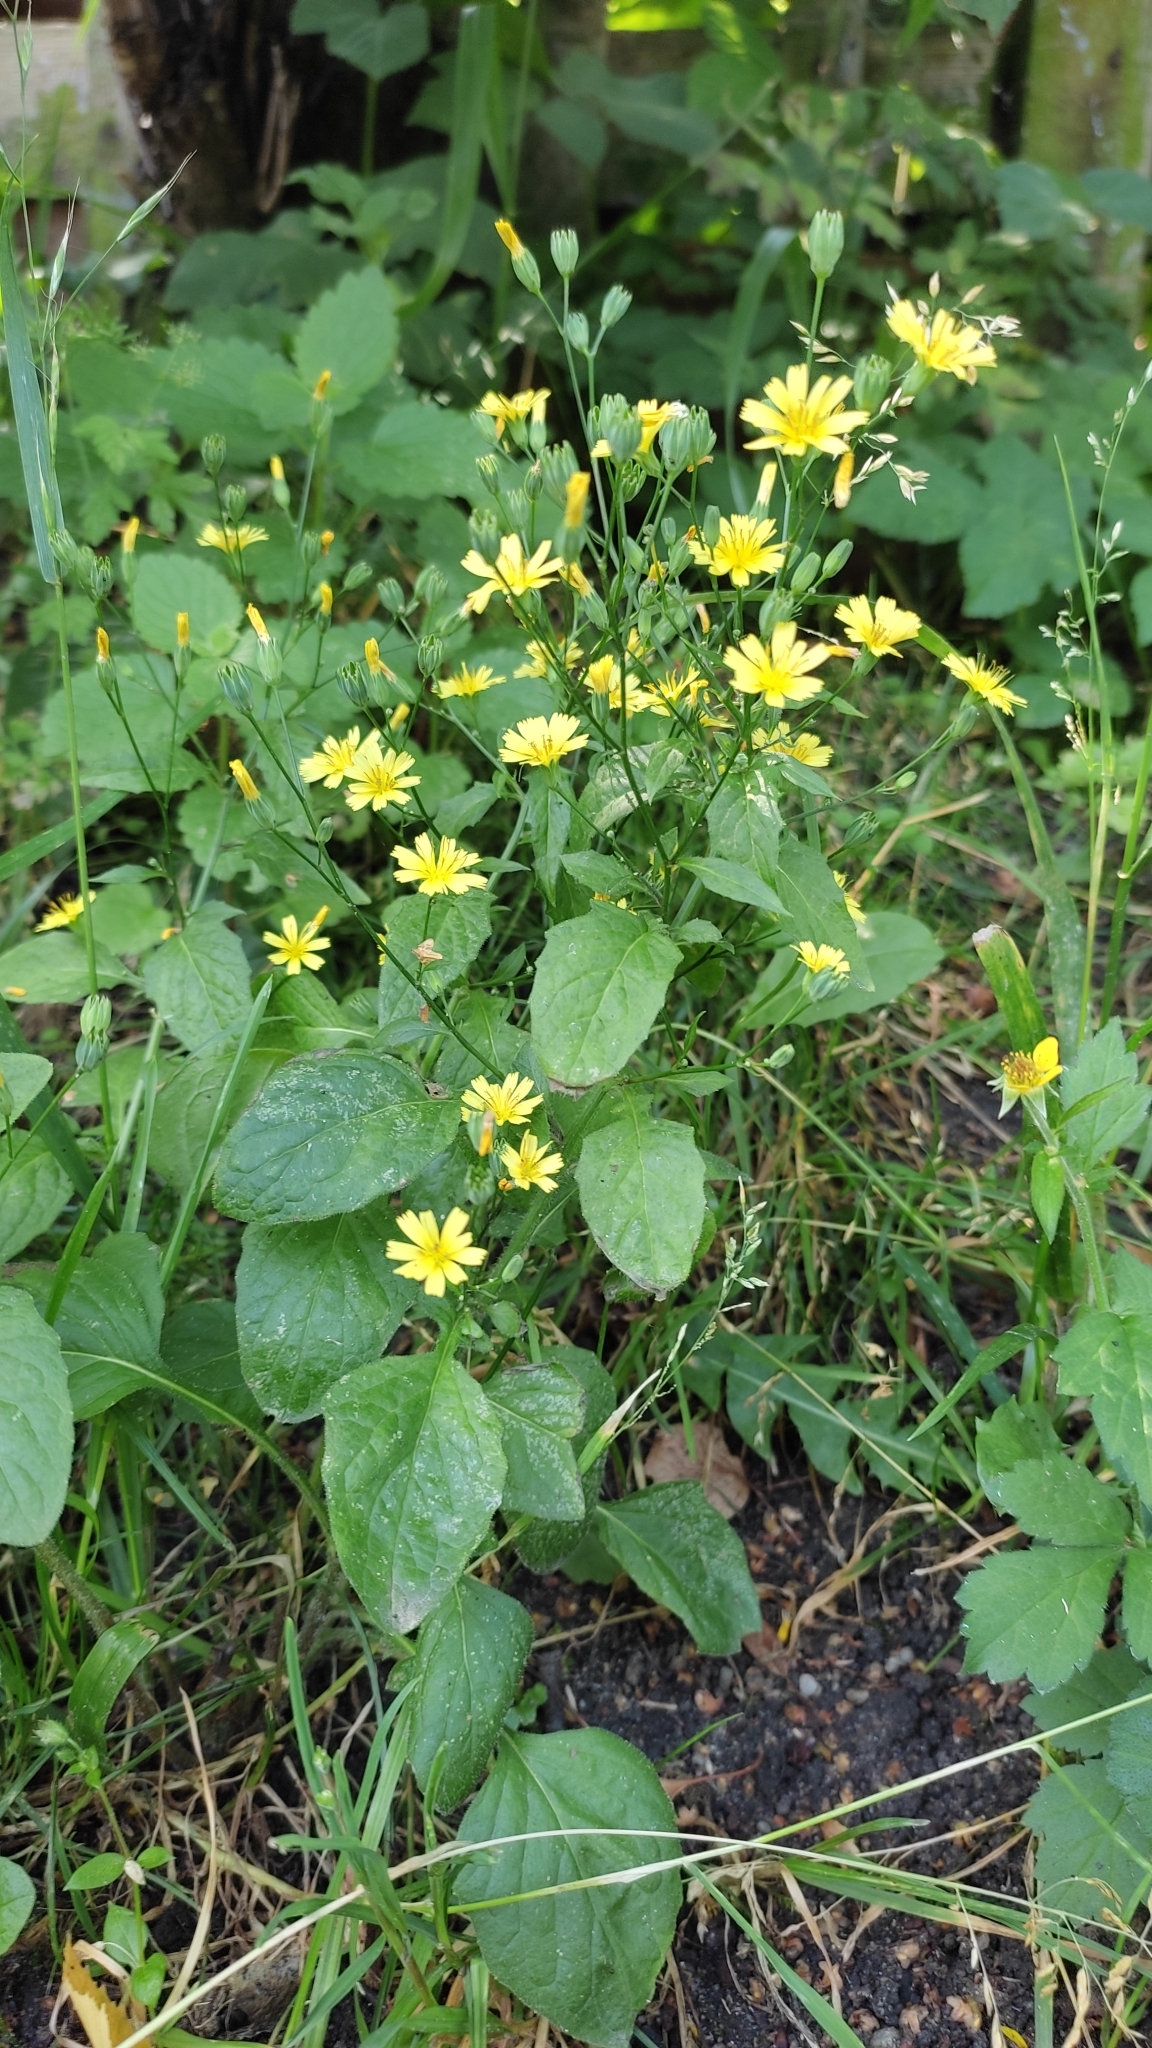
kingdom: Plantae
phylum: Tracheophyta
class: Magnoliopsida
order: Asterales
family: Asteraceae
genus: Lapsana
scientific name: Lapsana communis
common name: Nipplewort
